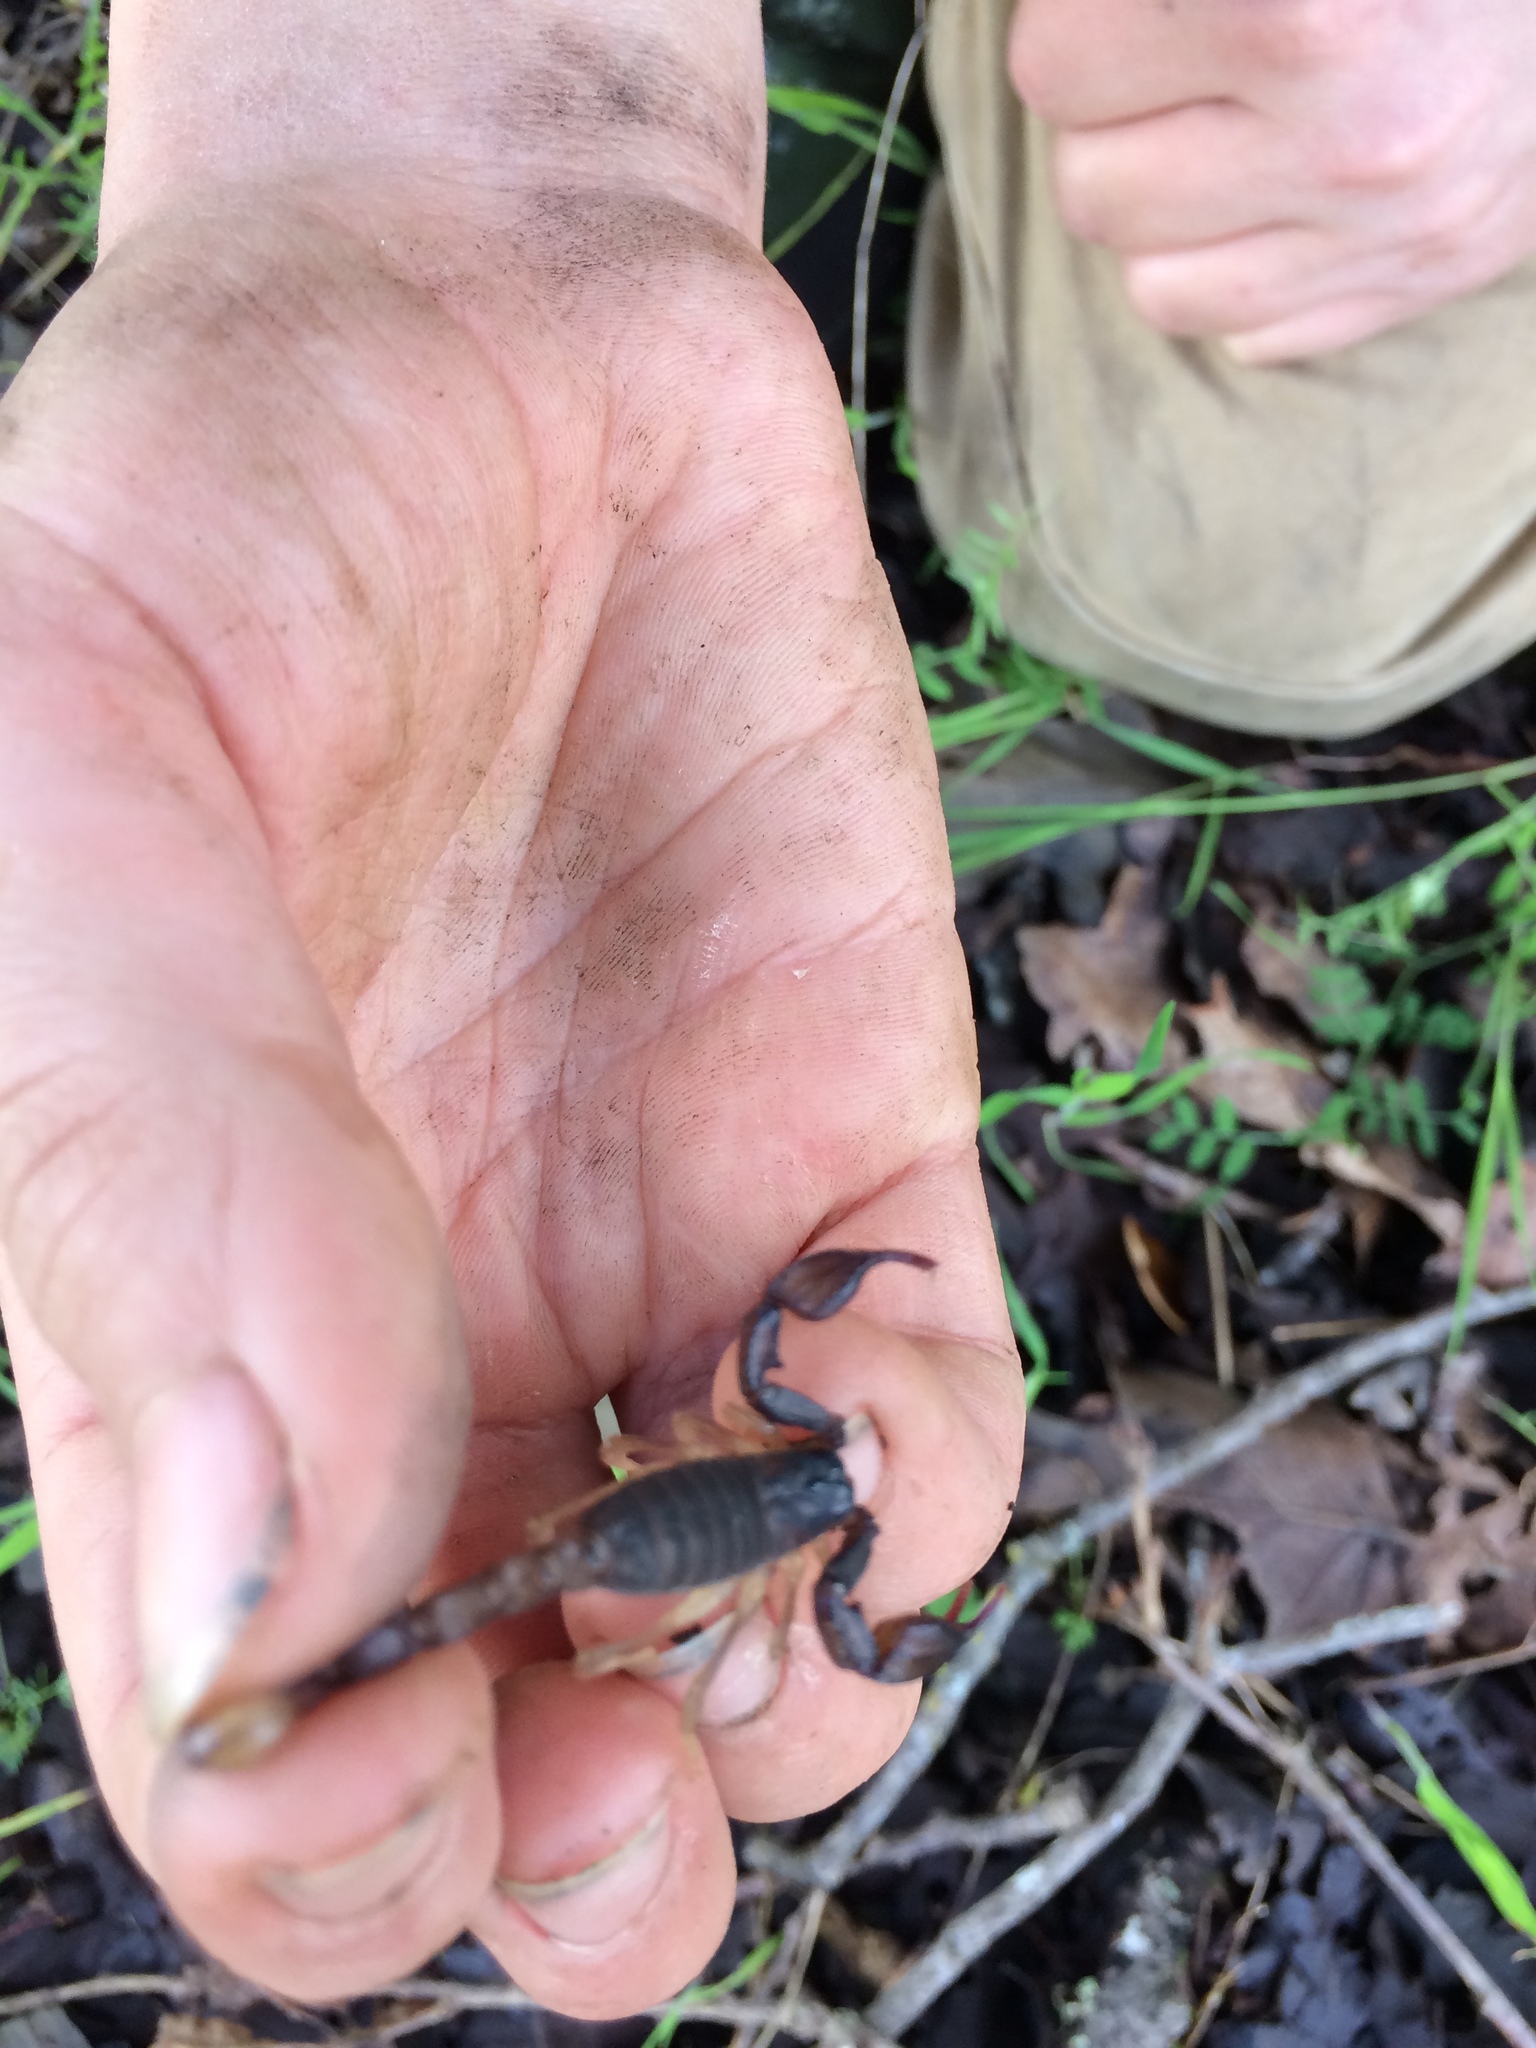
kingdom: Animalia
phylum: Arthropoda
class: Arachnida
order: Scorpiones
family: Chactidae
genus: Uroctonus
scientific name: Uroctonus mordax
